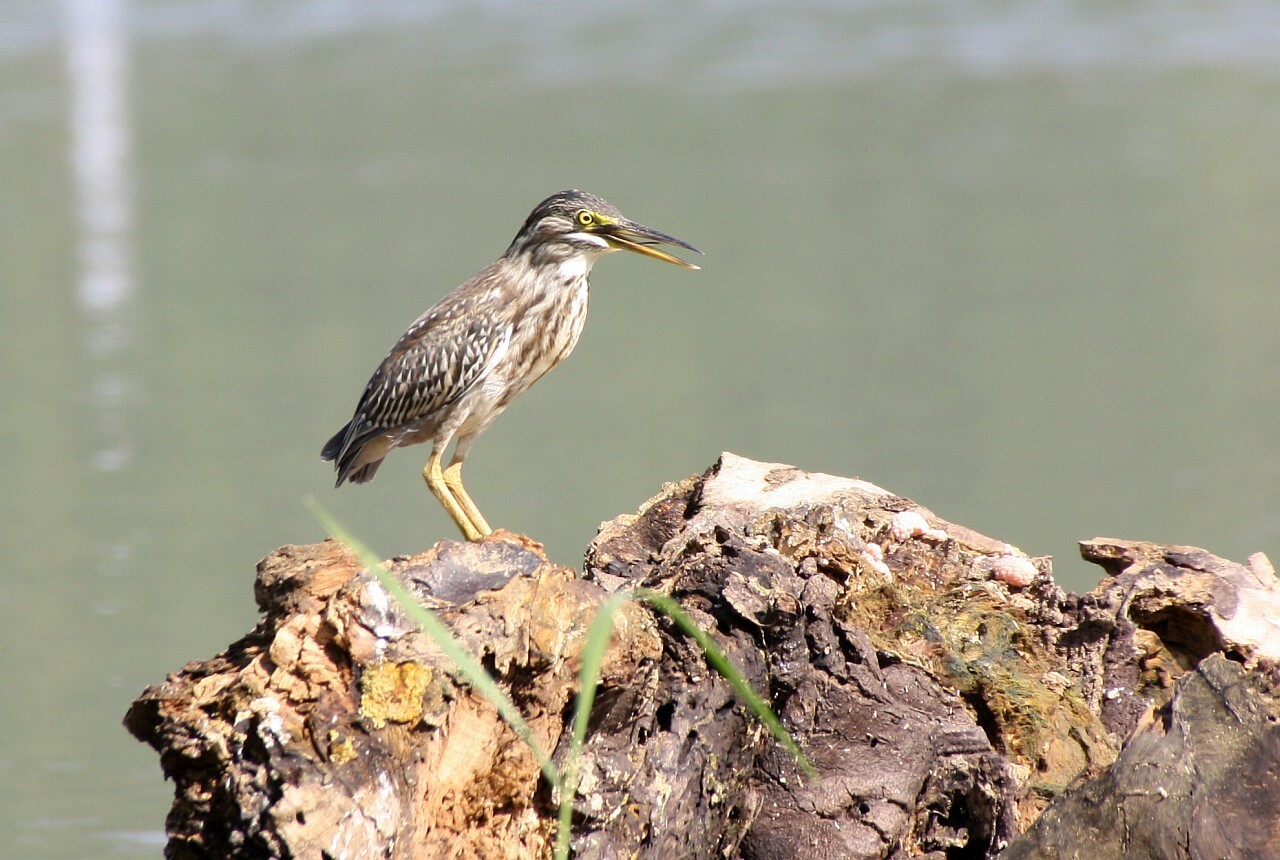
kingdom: Animalia
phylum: Chordata
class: Aves
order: Pelecaniformes
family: Ardeidae
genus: Butorides
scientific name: Butorides striata
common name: Striated heron
